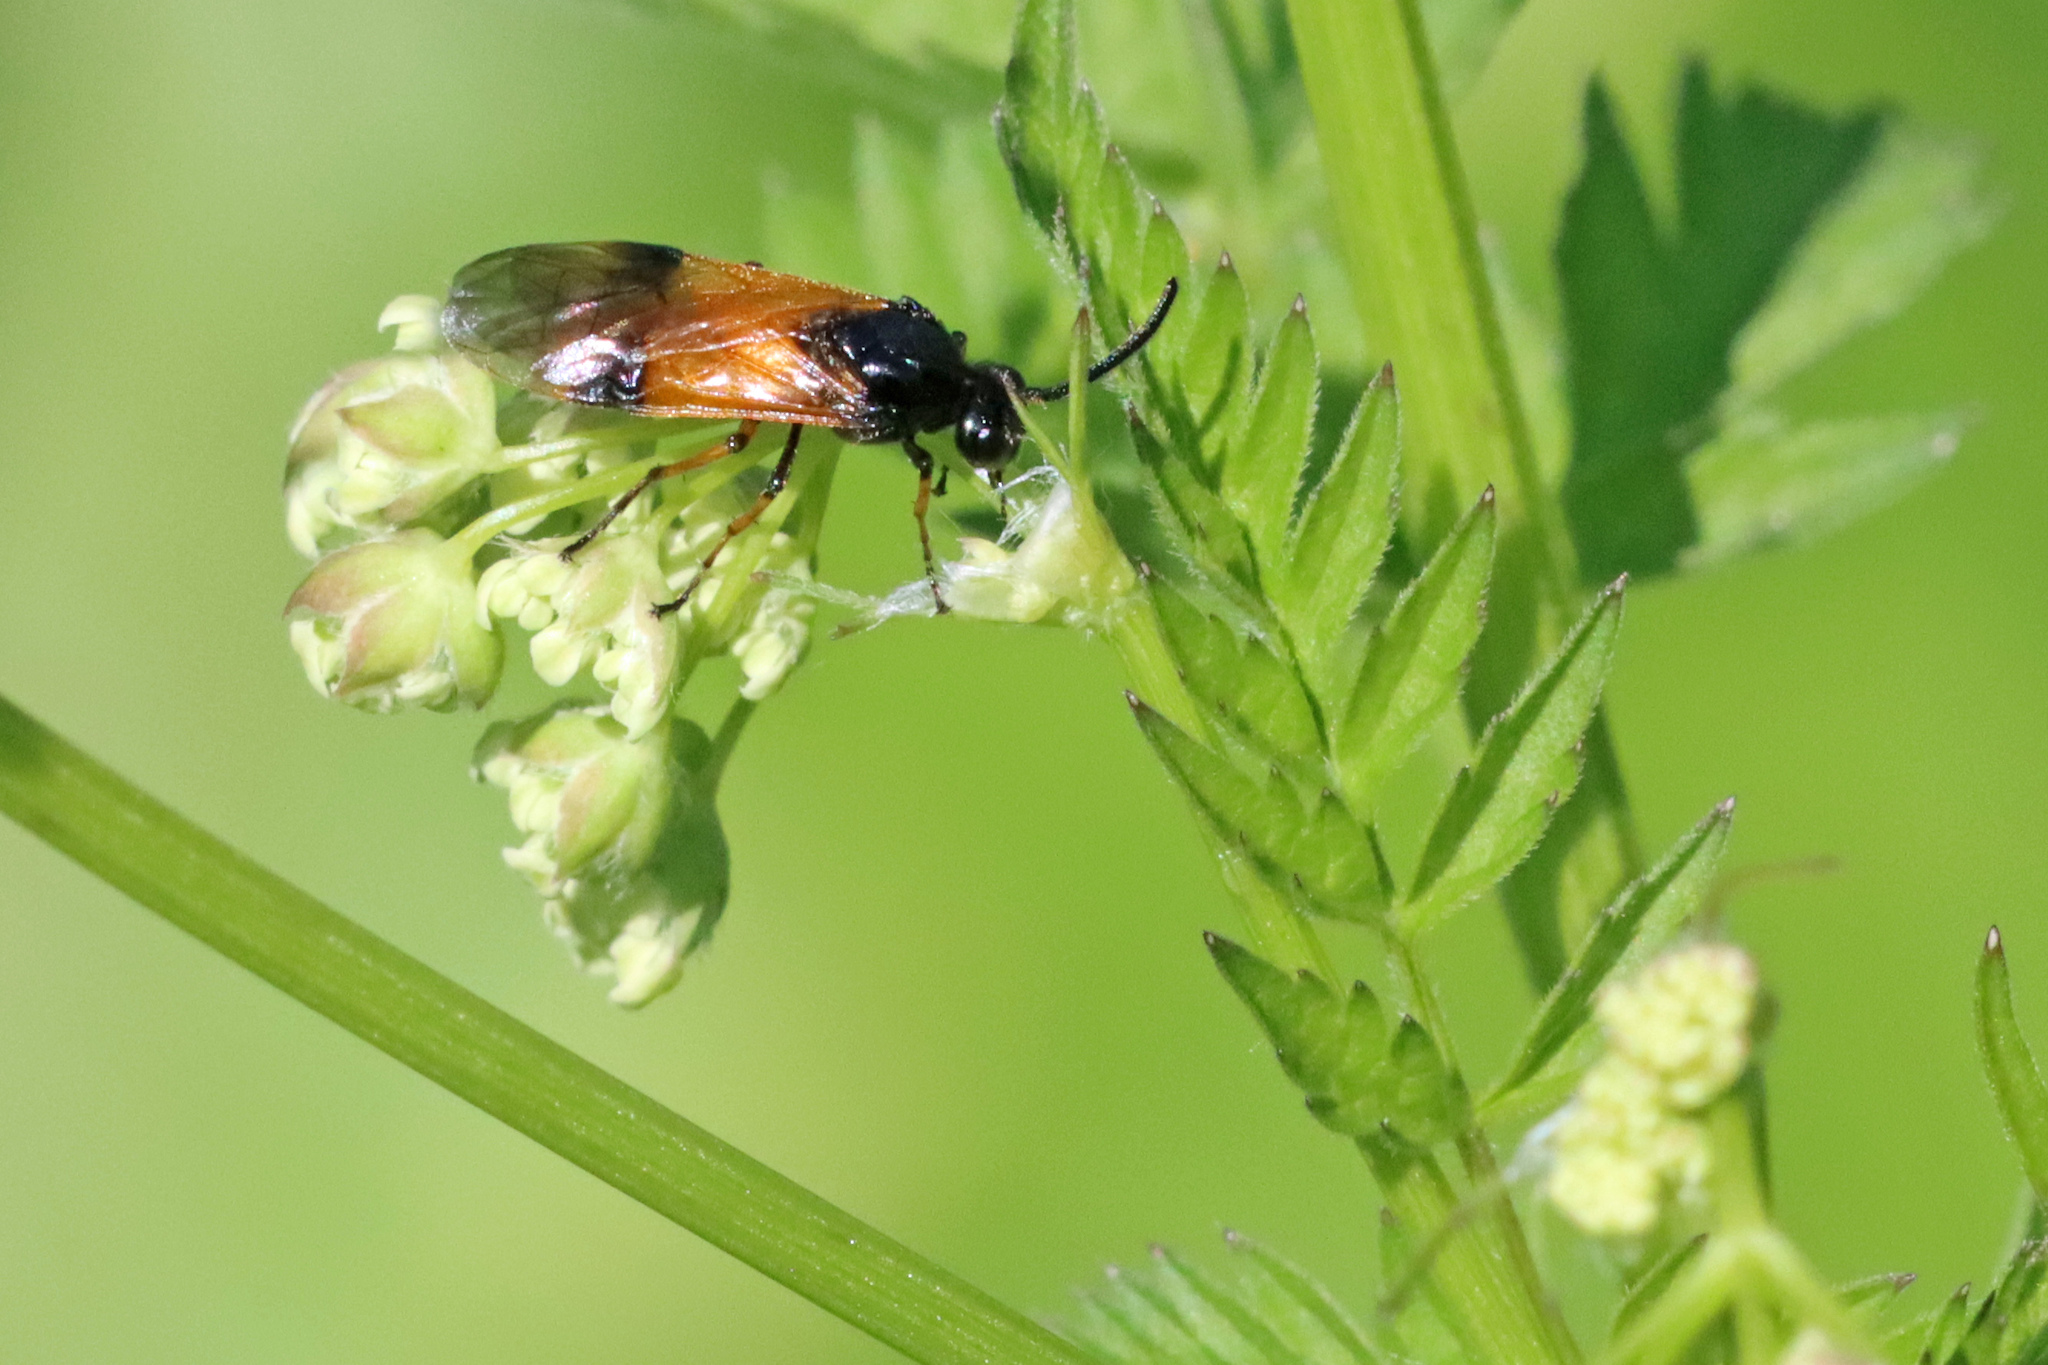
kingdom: Animalia
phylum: Arthropoda
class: Insecta
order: Hymenoptera
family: Argidae
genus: Arge
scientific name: Arge cyanocrocea
